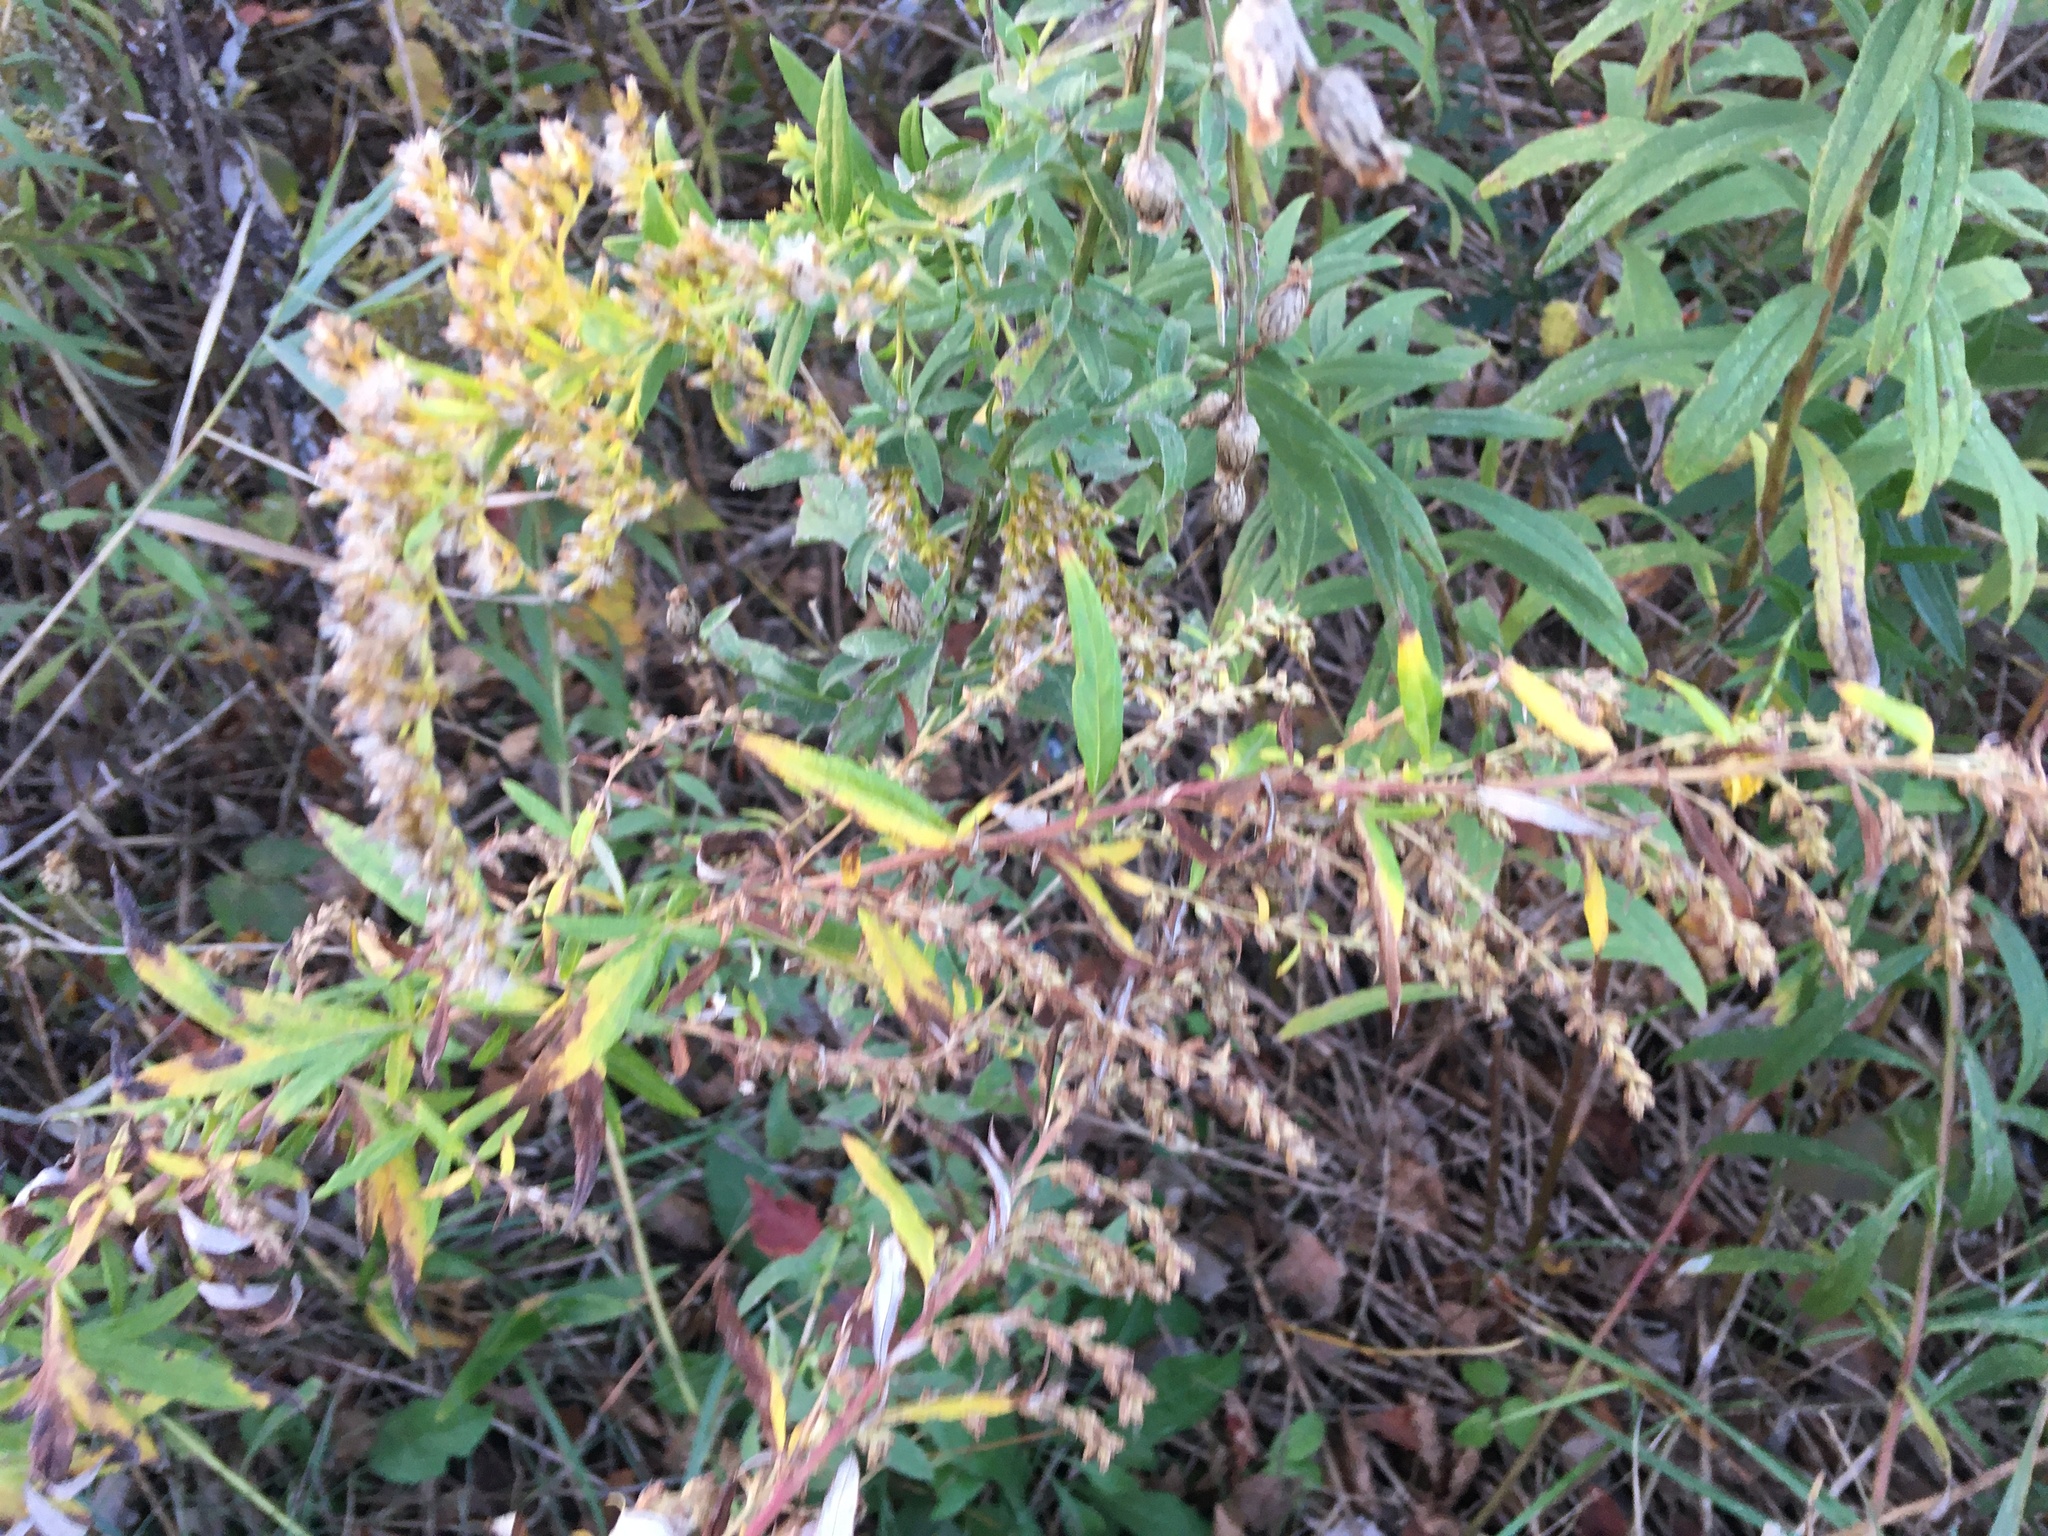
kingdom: Plantae
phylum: Tracheophyta
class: Magnoliopsida
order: Asterales
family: Asteraceae
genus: Artemisia
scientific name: Artemisia vulgaris
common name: Mugwort
